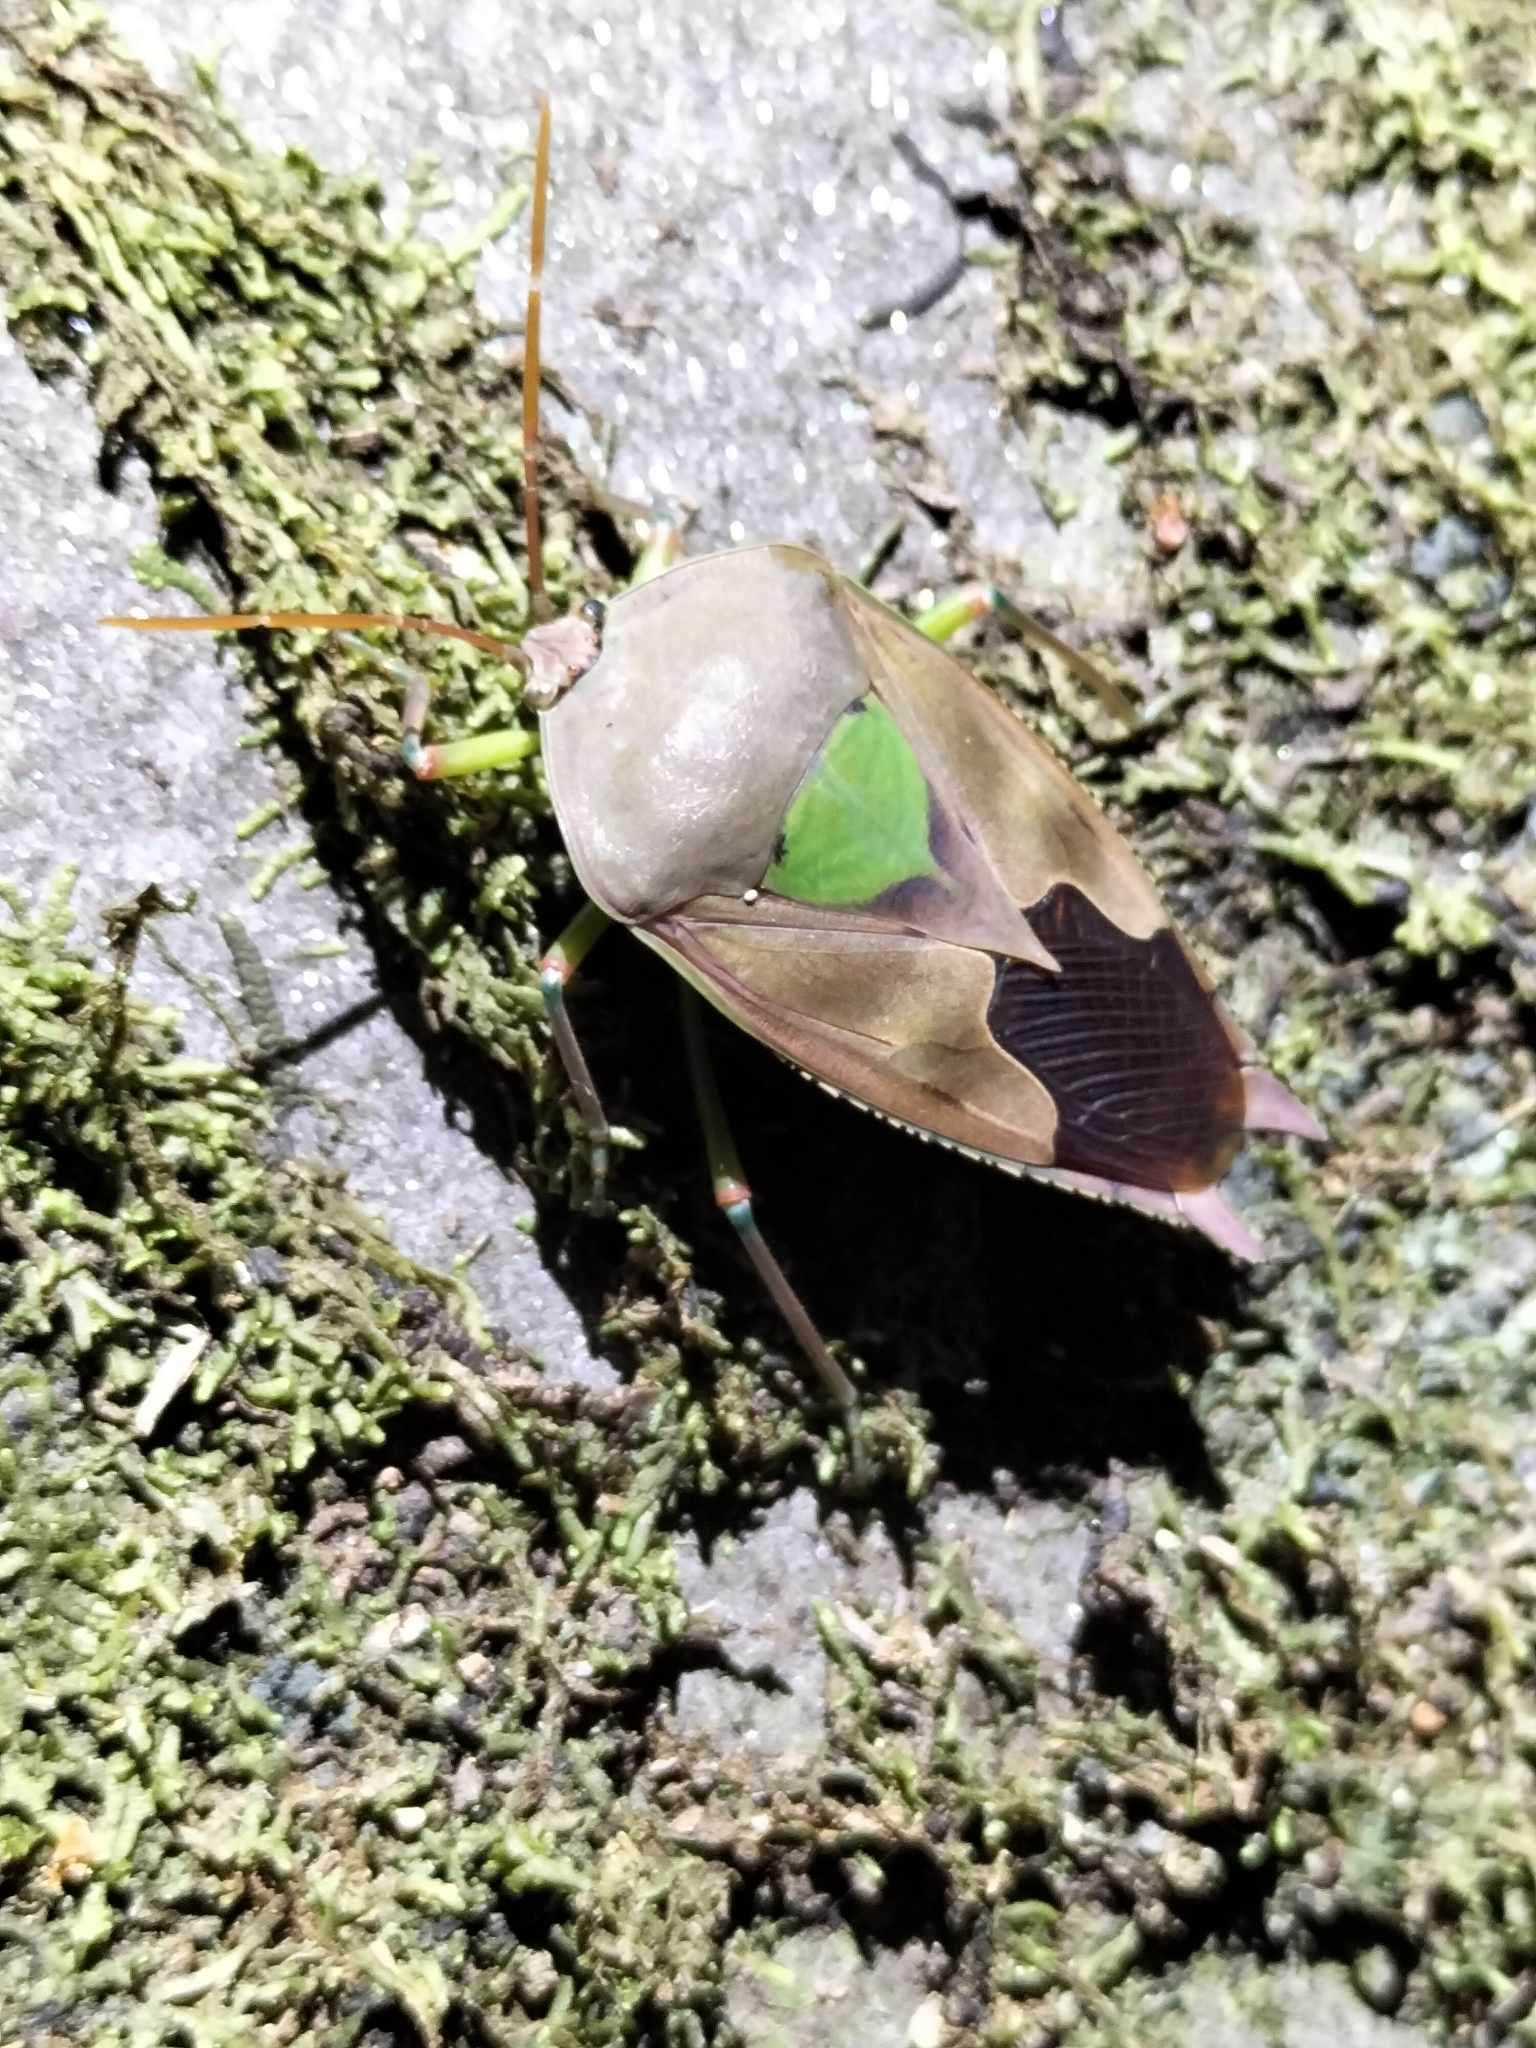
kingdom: Animalia
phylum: Arthropoda
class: Insecta
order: Hemiptera
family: Tessaratomidae
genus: Lyramorpha
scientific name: Lyramorpha parens
